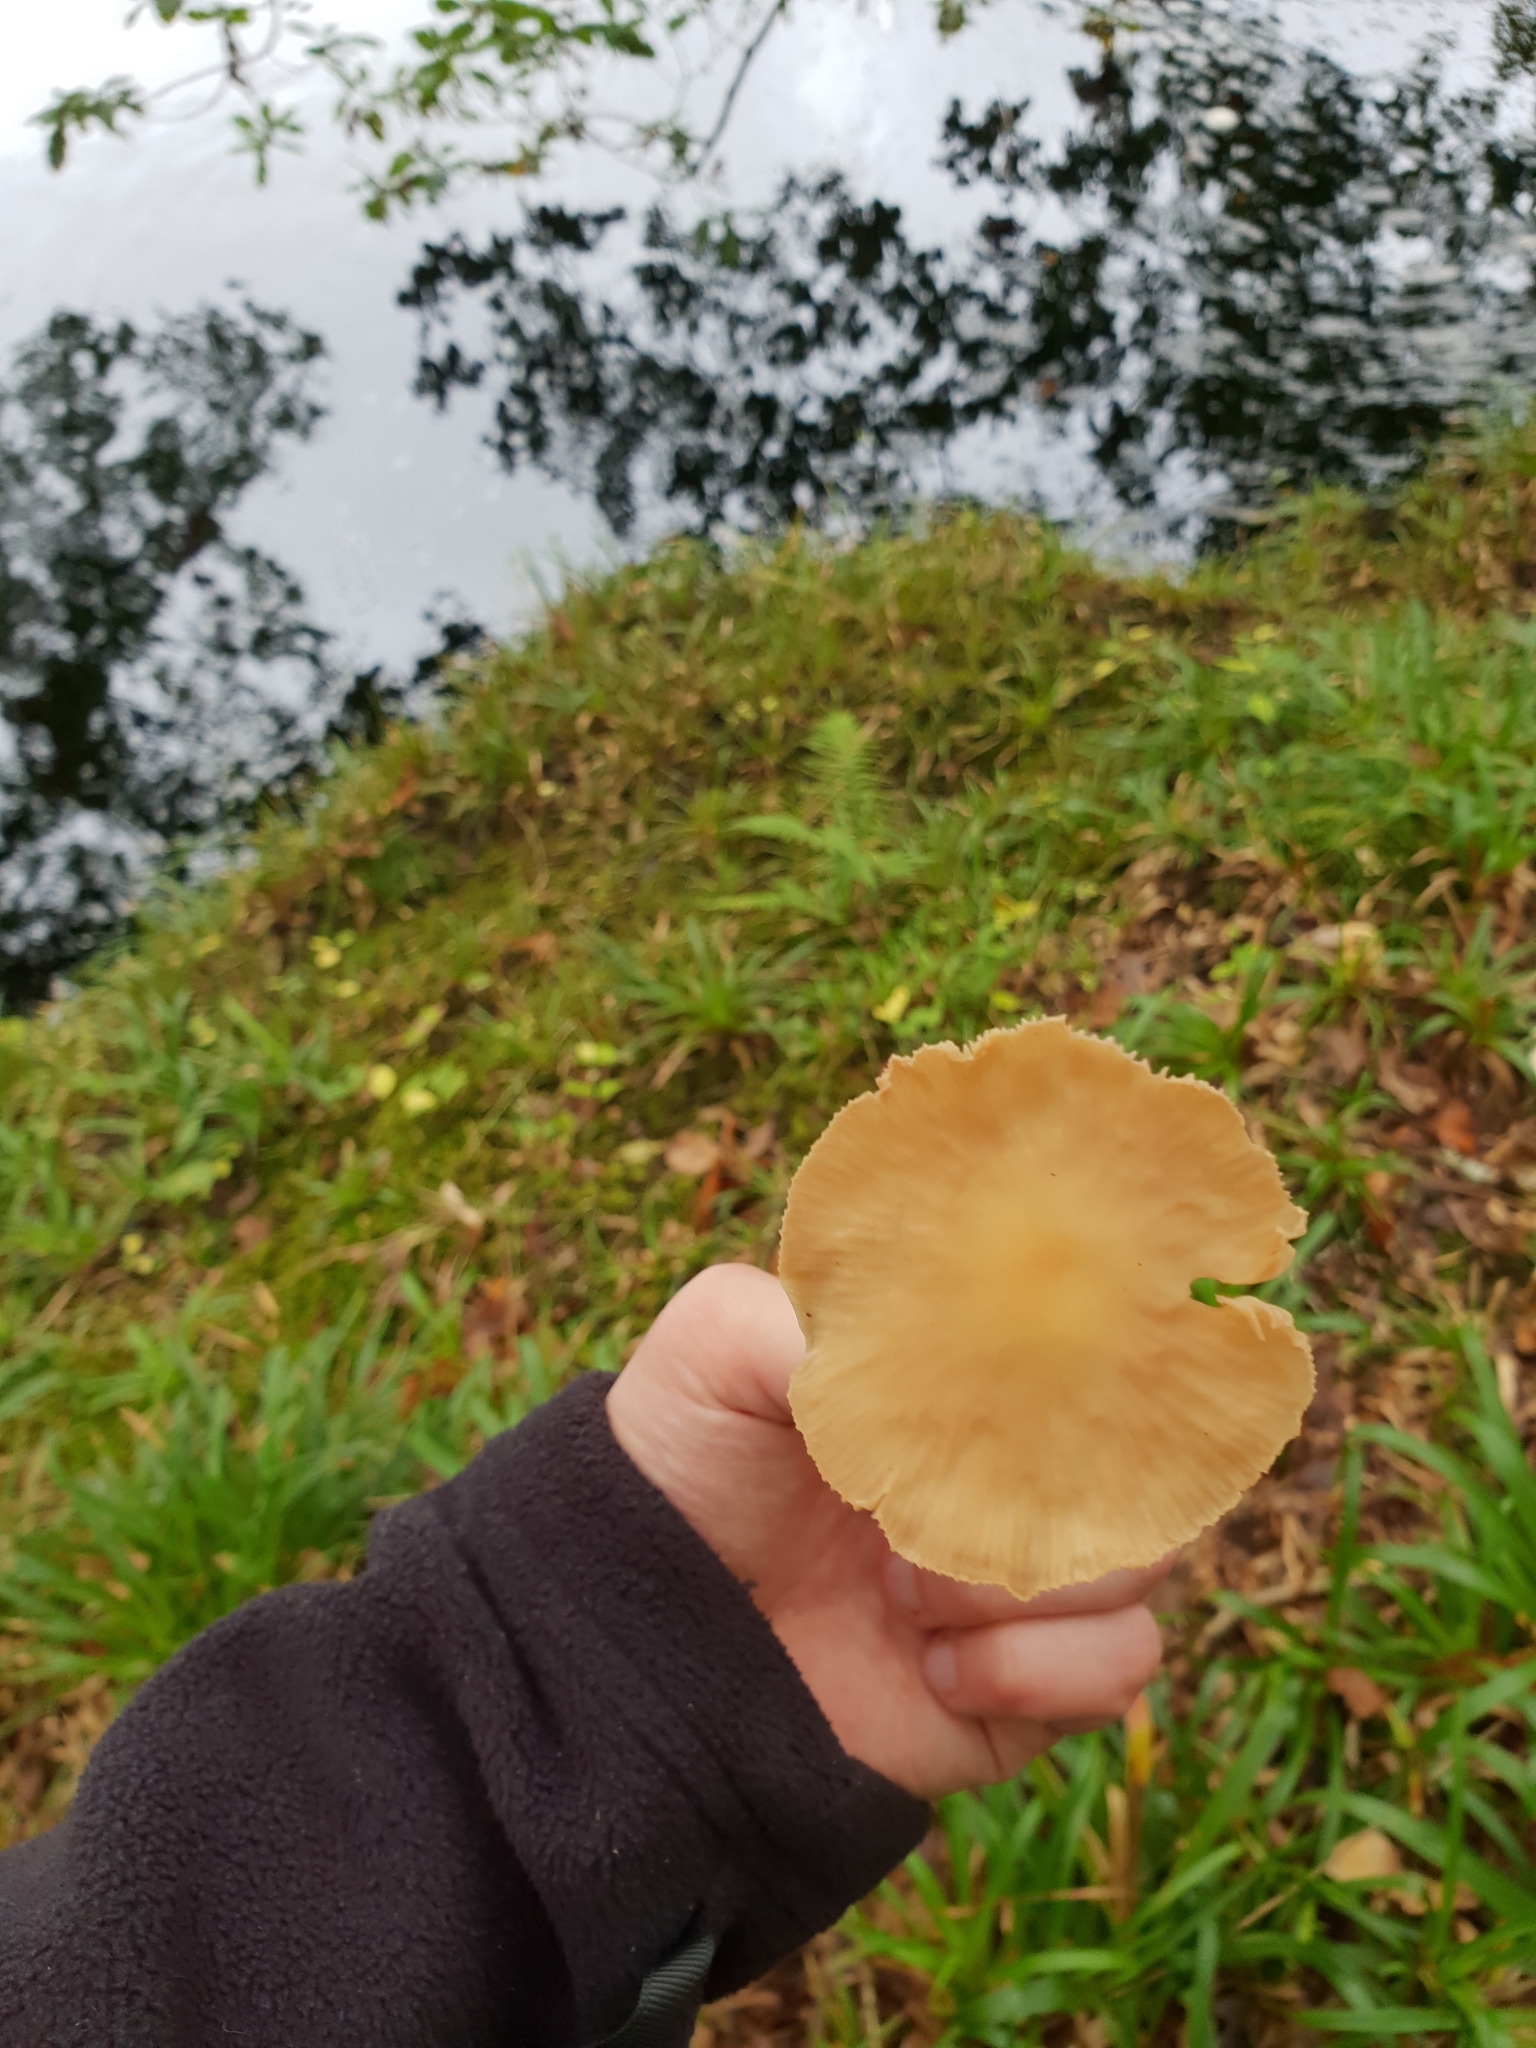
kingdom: Fungi
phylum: Basidiomycota
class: Agaricomycetes
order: Agaricales
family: Omphalotaceae
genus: Collybiopsis
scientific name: Collybiopsis peronata
